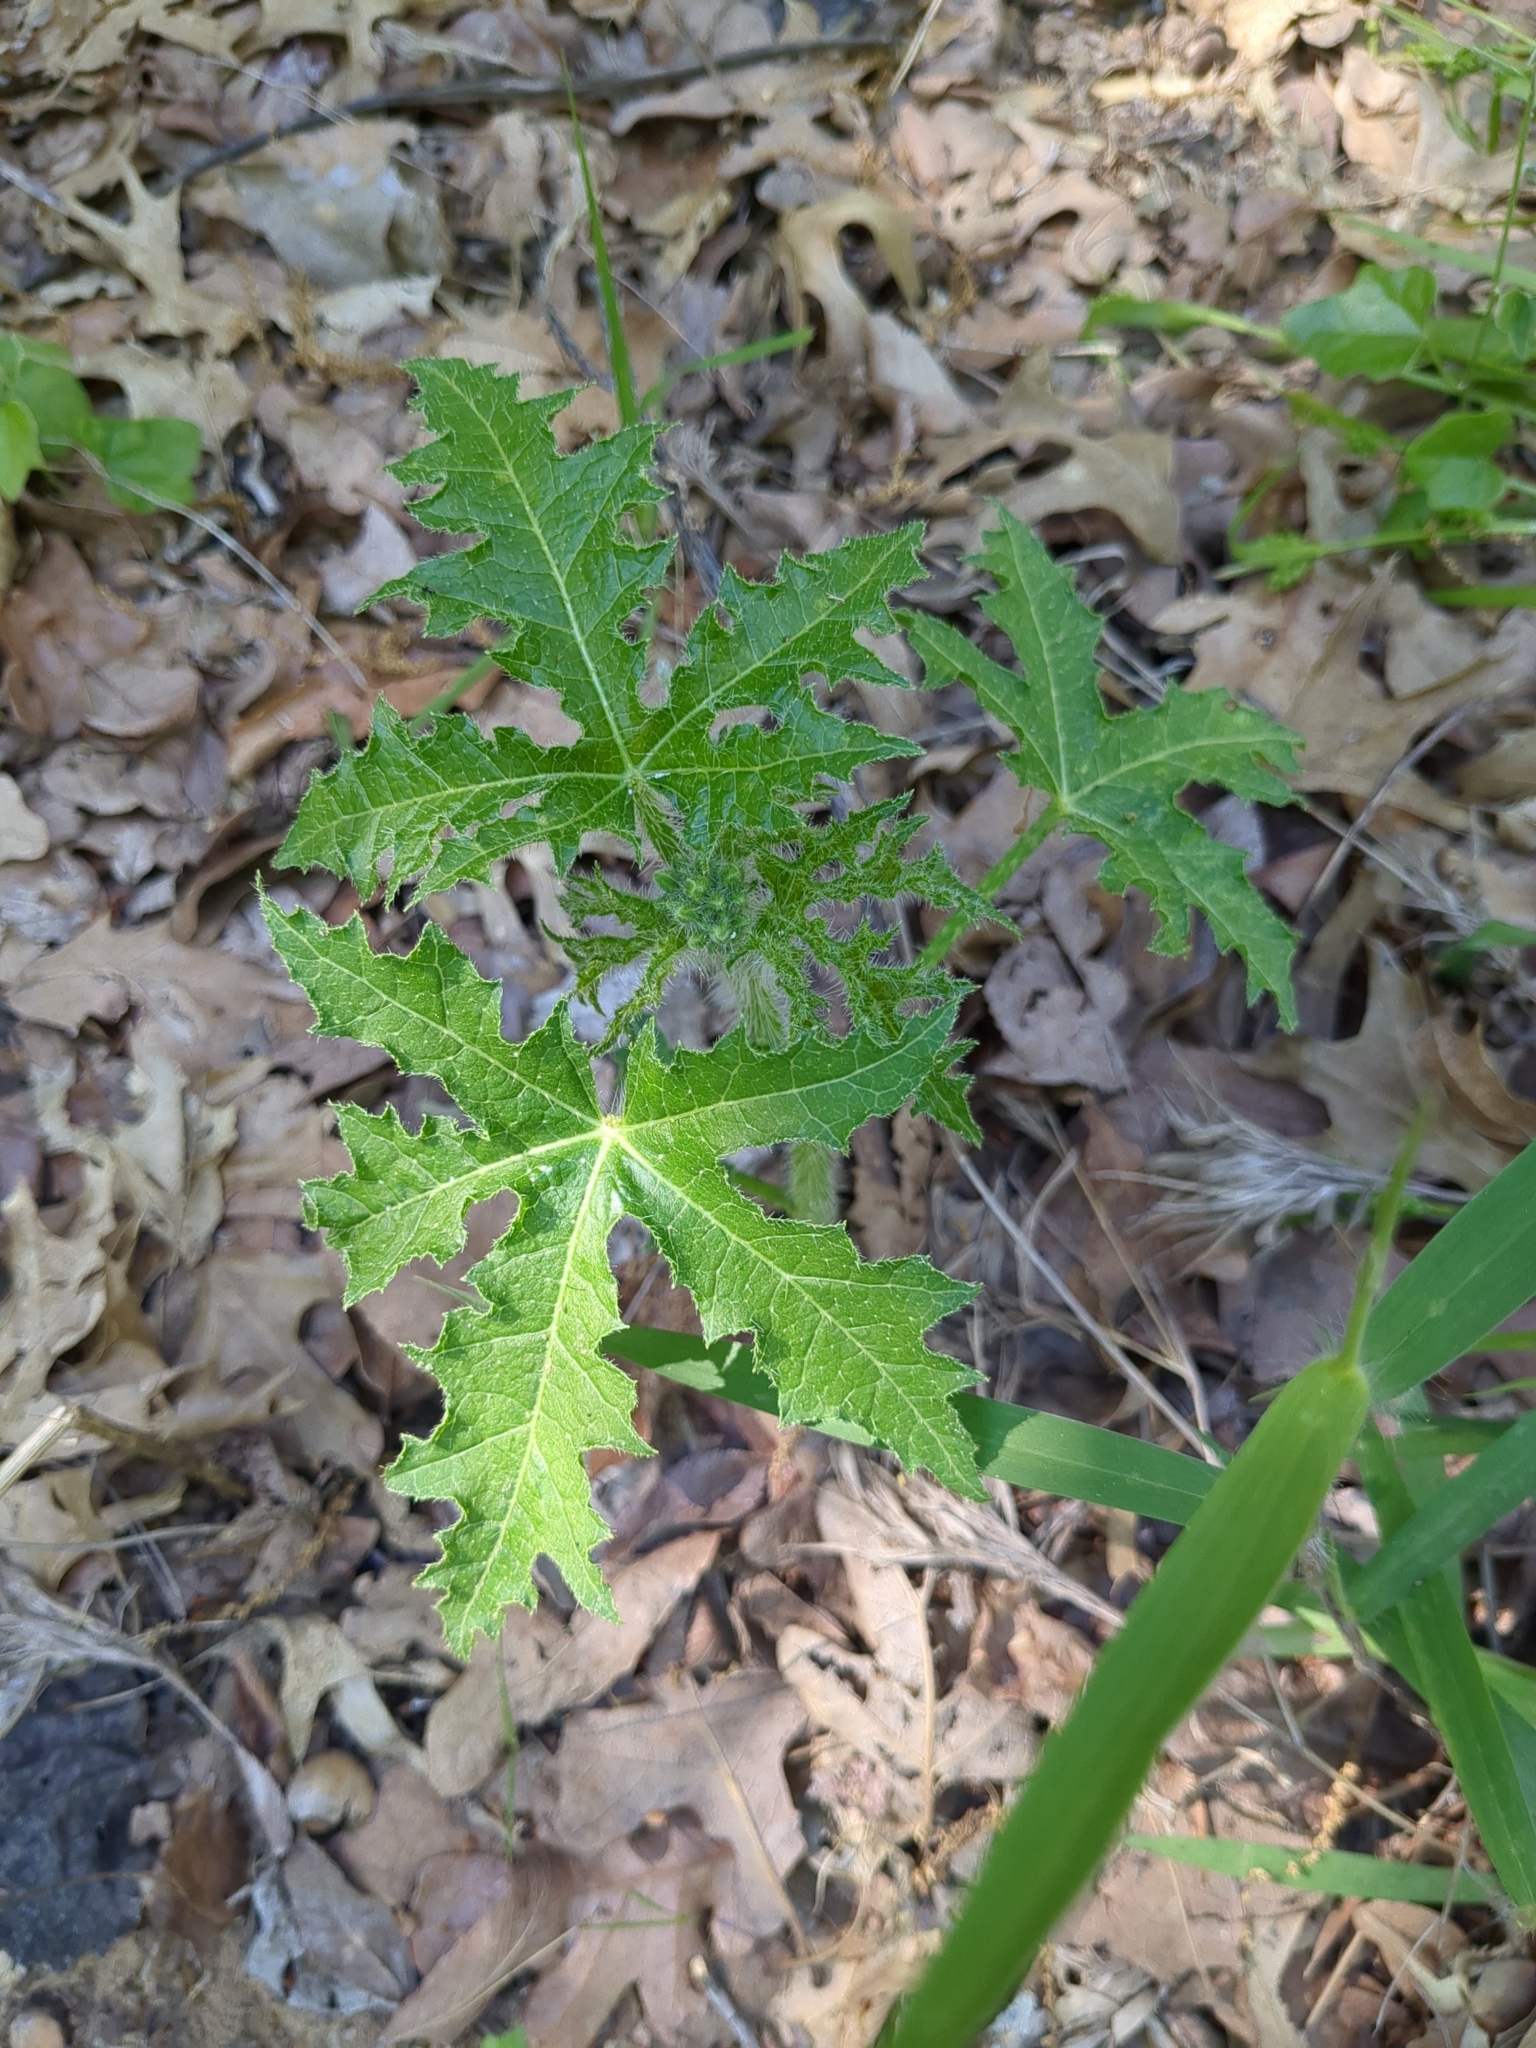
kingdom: Plantae
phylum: Tracheophyta
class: Magnoliopsida
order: Malpighiales
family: Euphorbiaceae
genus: Cnidoscolus
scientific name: Cnidoscolus texanus
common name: Texas bull-nettle
